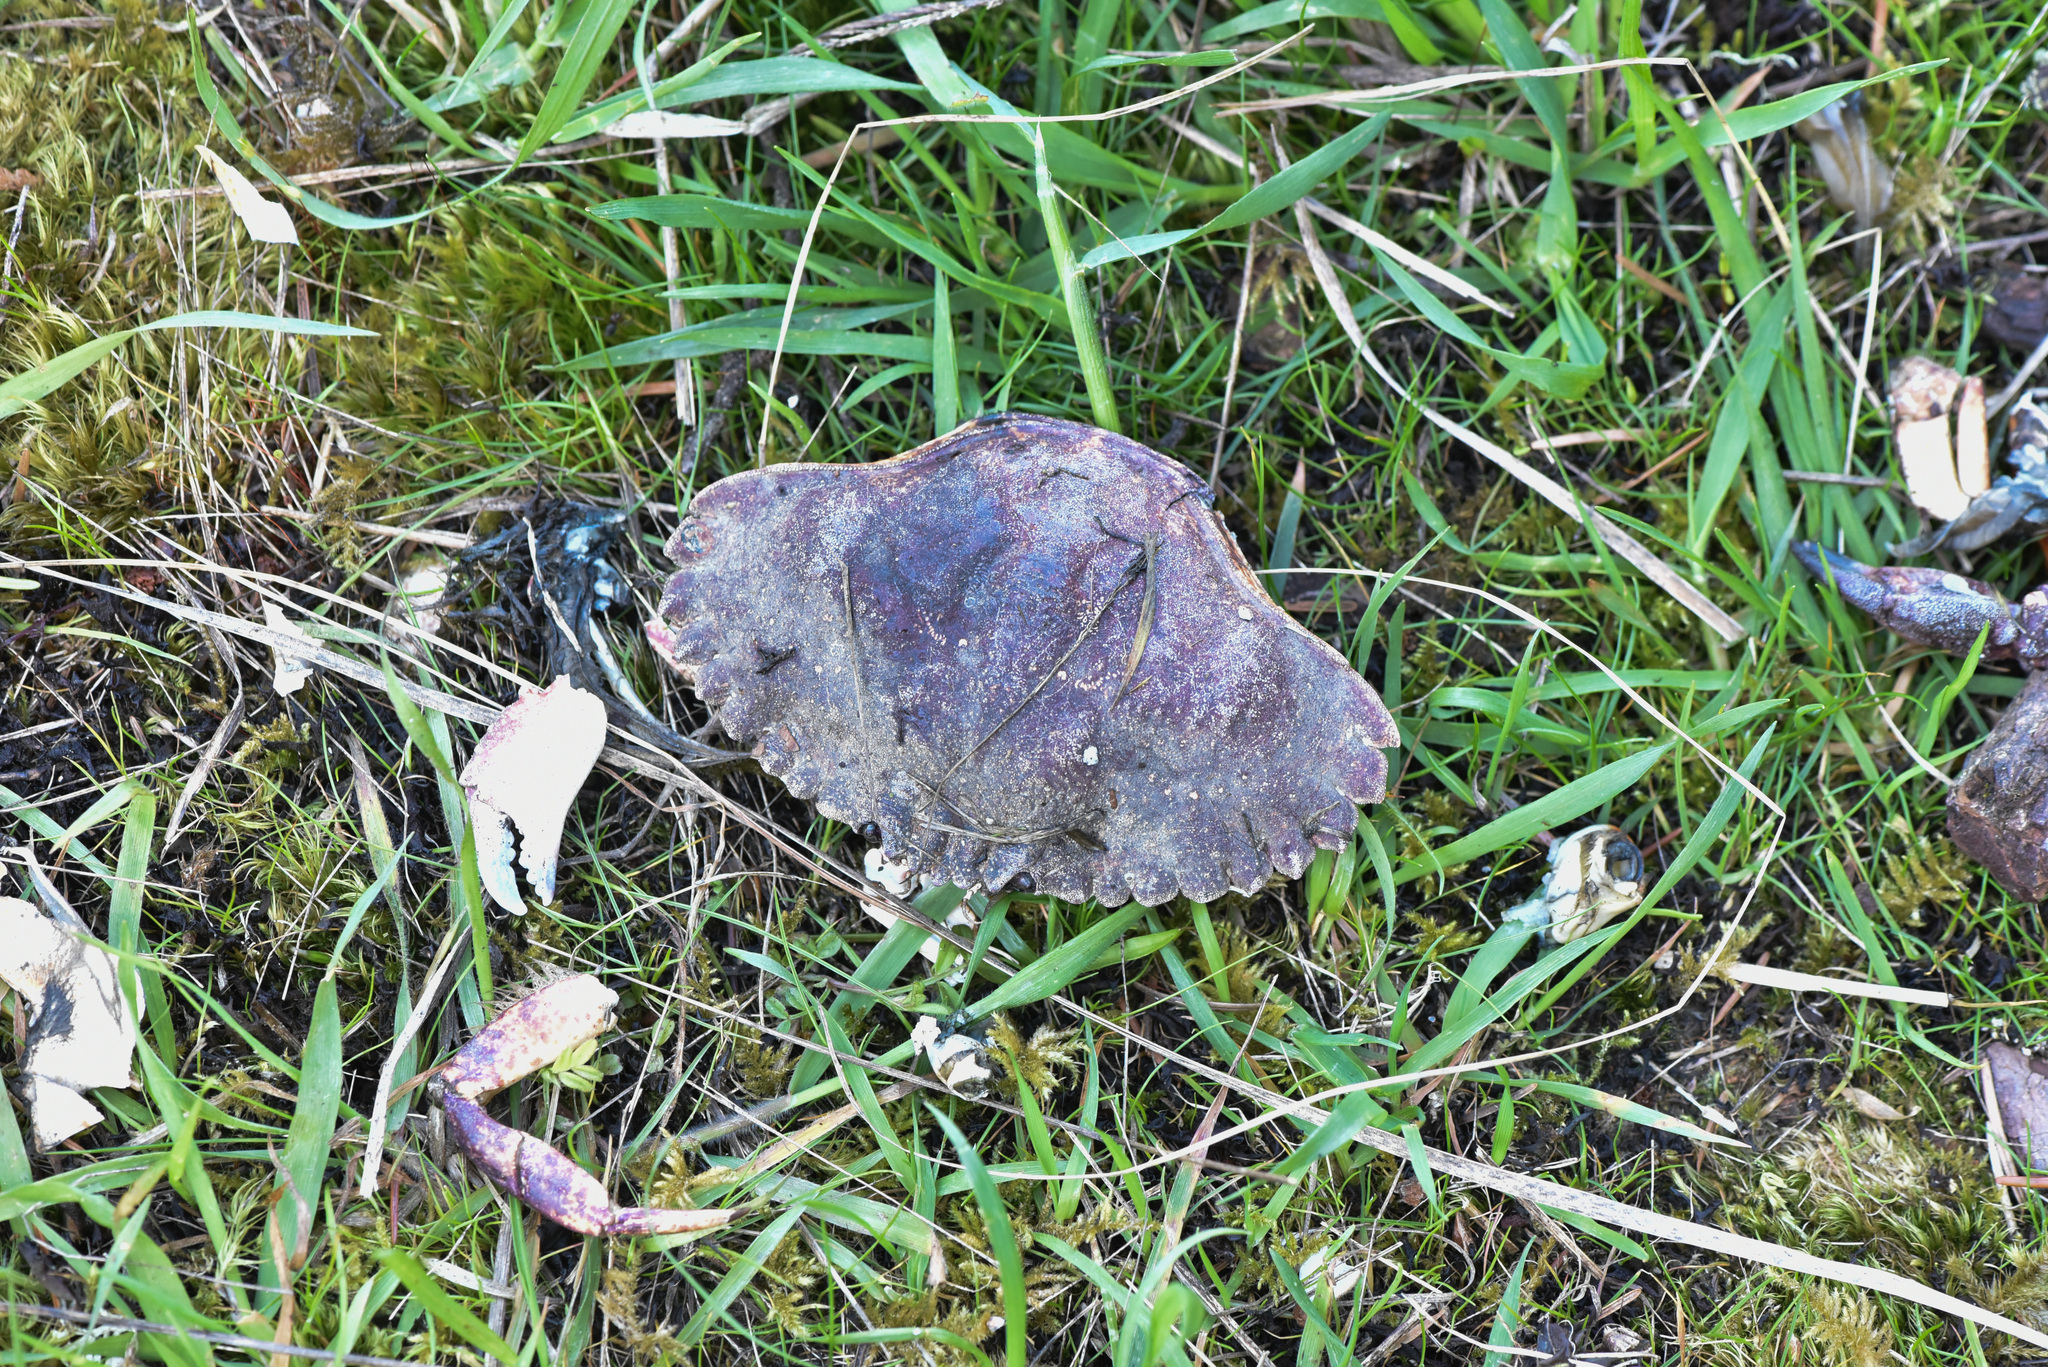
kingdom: Animalia
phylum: Arthropoda
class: Malacostraca
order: Decapoda
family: Cancridae
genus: Cancer
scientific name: Cancer productus
